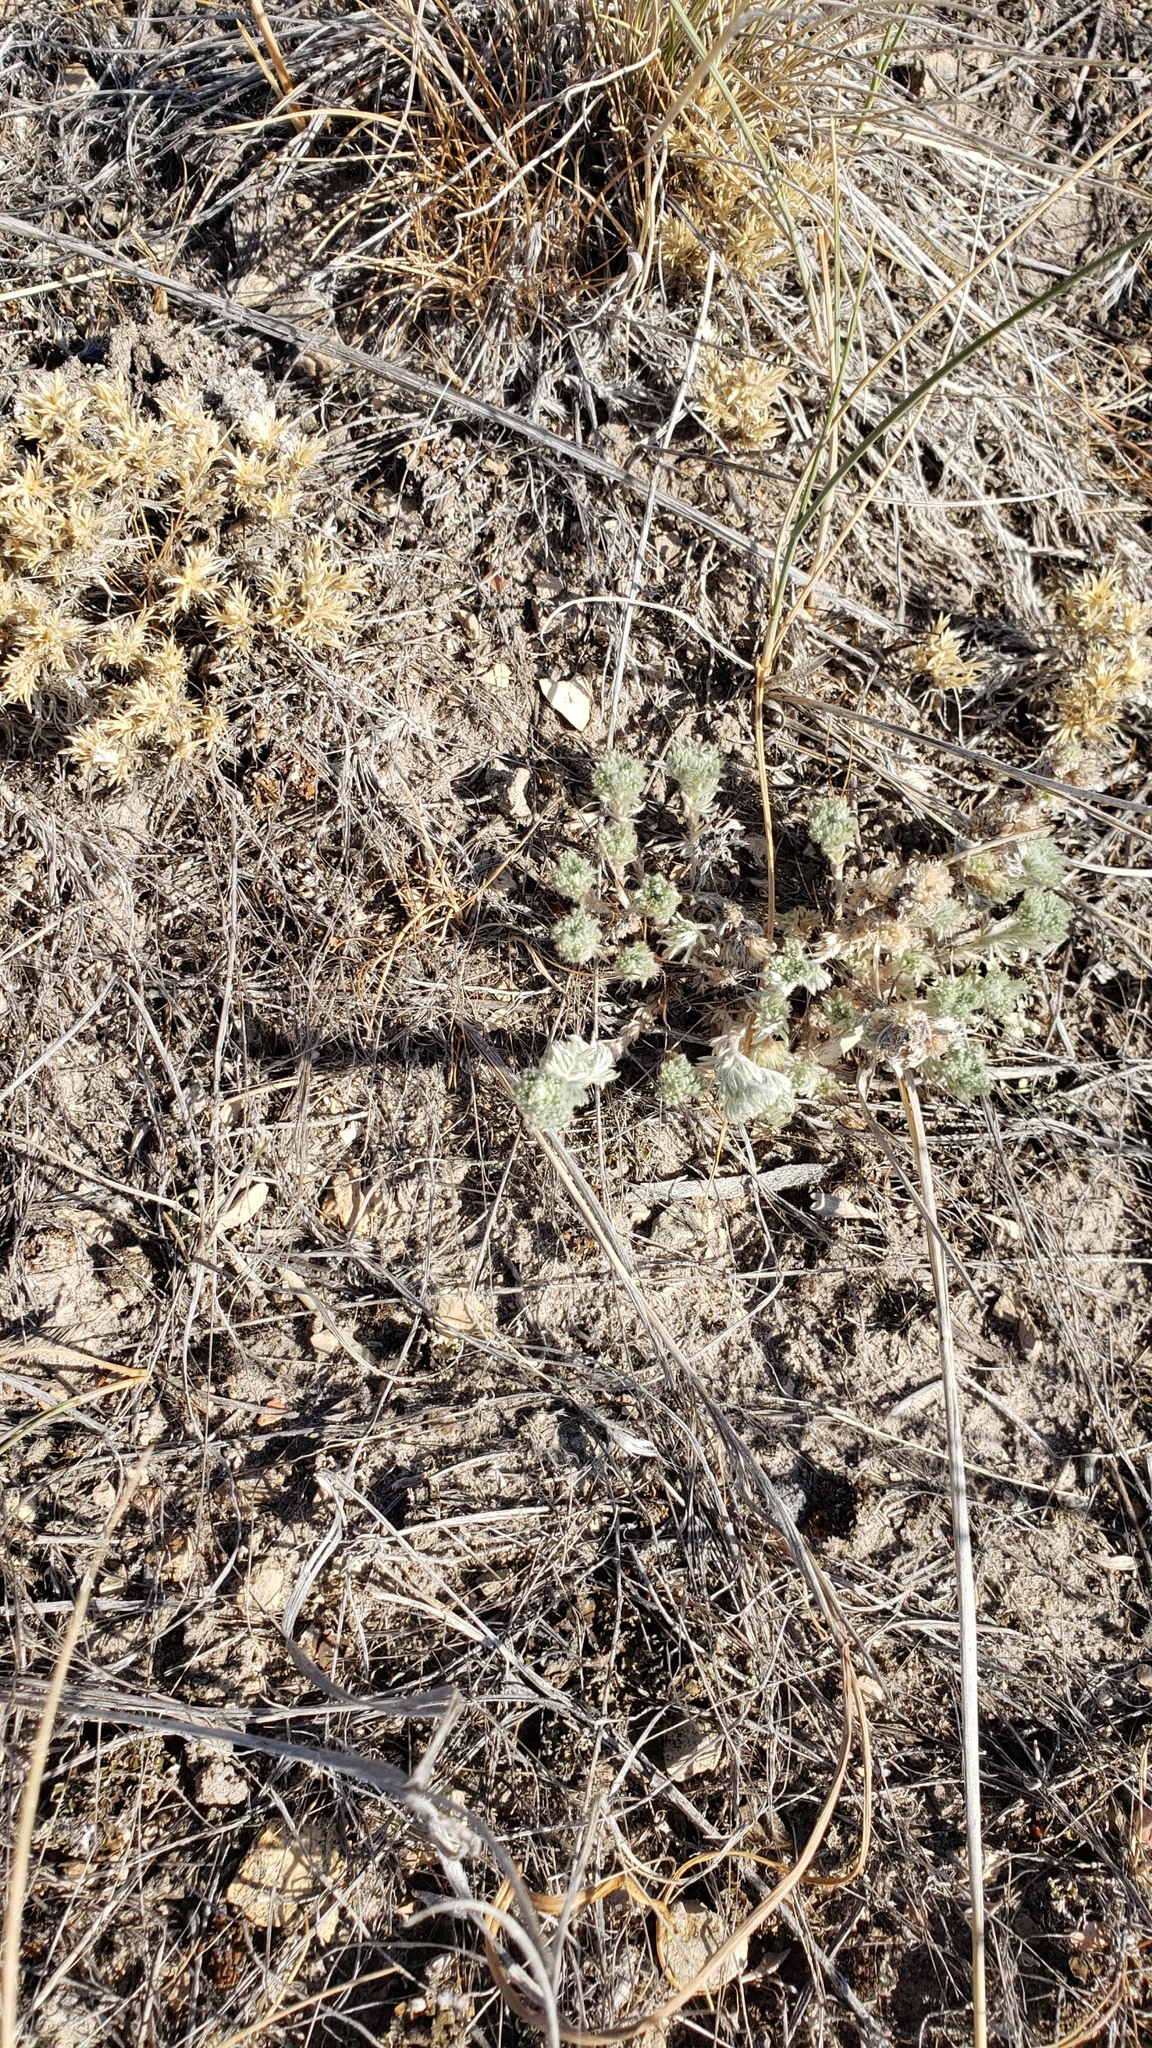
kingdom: Plantae
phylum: Tracheophyta
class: Magnoliopsida
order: Asterales
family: Asteraceae
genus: Artemisia
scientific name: Artemisia frigida
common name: Prairie sagewort
